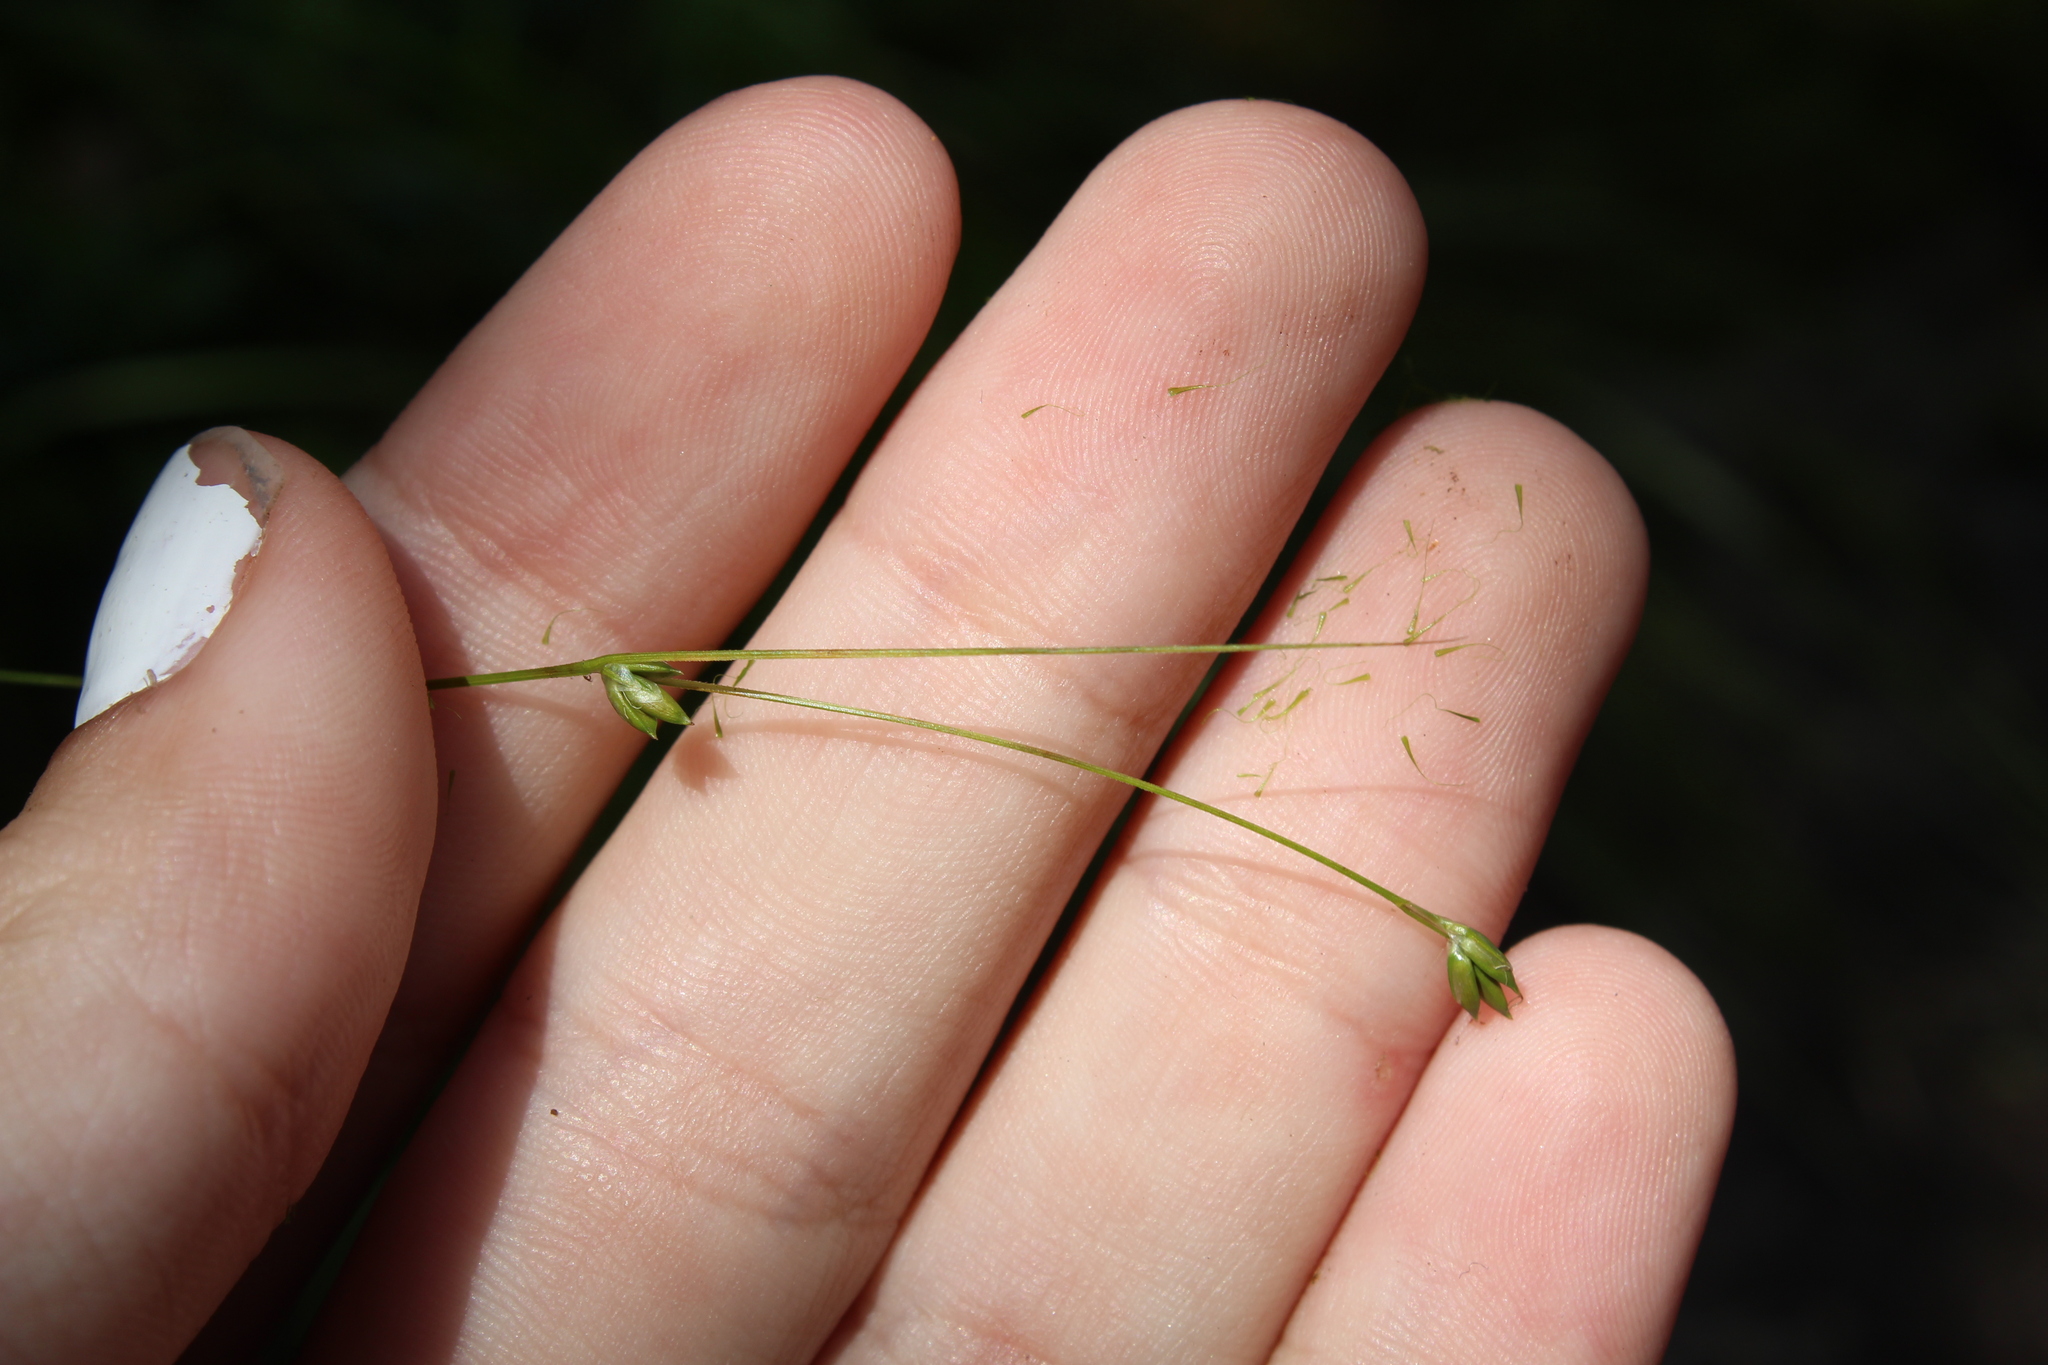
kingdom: Plantae
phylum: Tracheophyta
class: Liliopsida
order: Poales
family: Cyperaceae
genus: Carex
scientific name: Carex trisperma
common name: Three-seeded sedge
